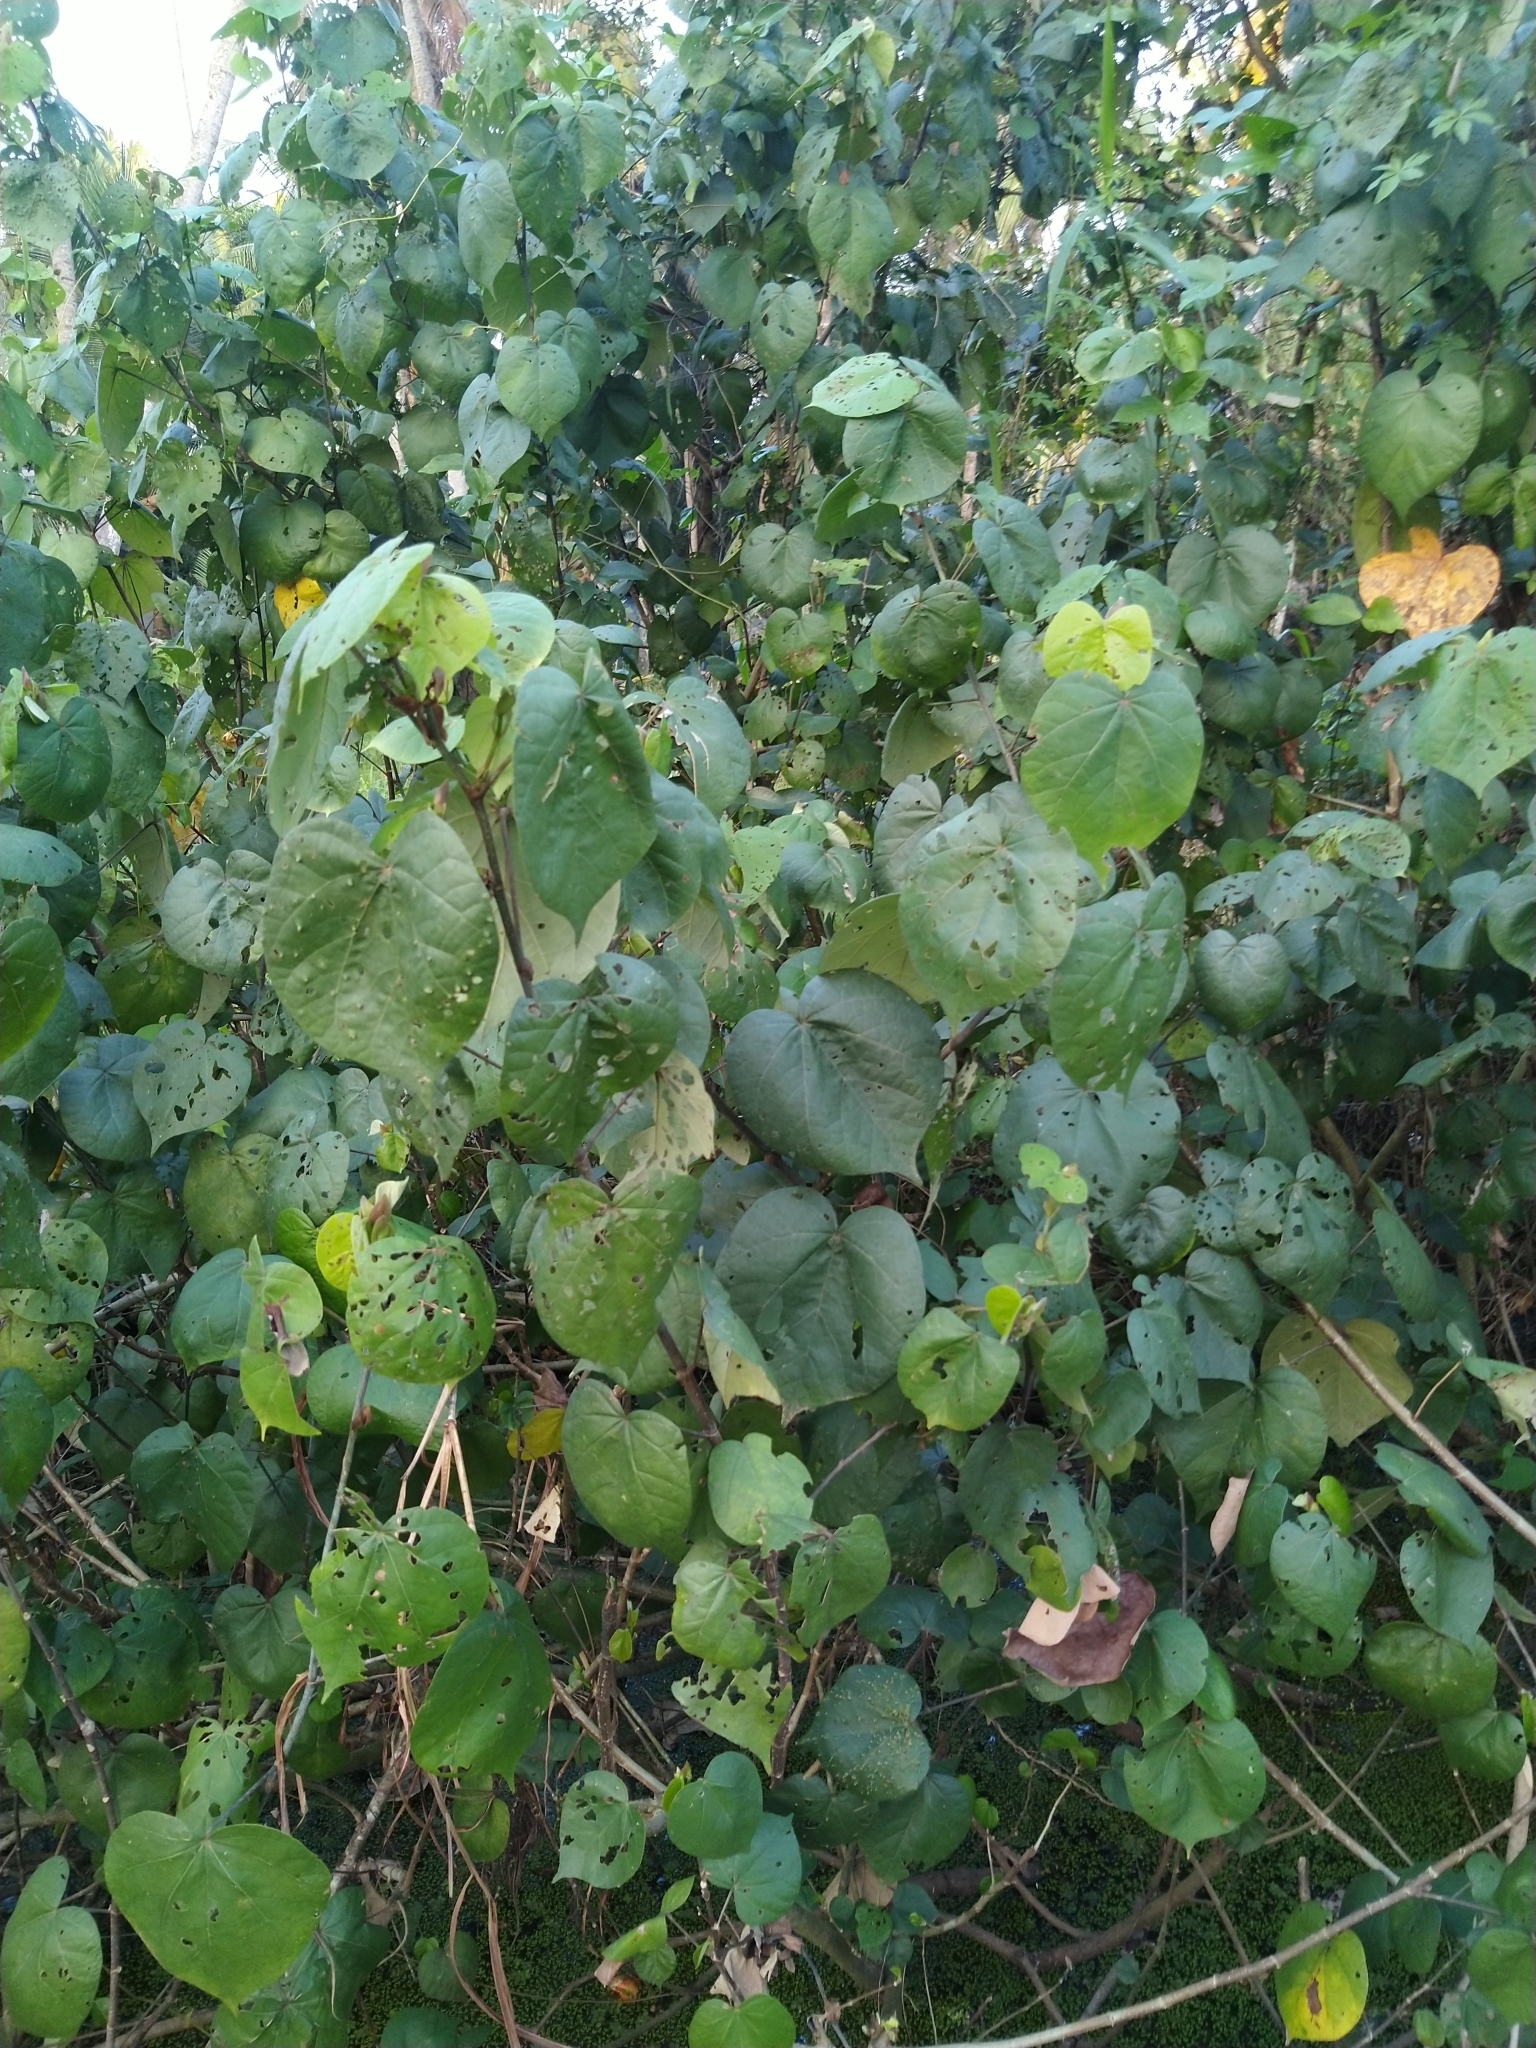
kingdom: Plantae
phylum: Tracheophyta
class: Magnoliopsida
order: Malvales
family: Malvaceae
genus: Talipariti
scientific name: Talipariti tiliaceum
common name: Sea hibiscus
